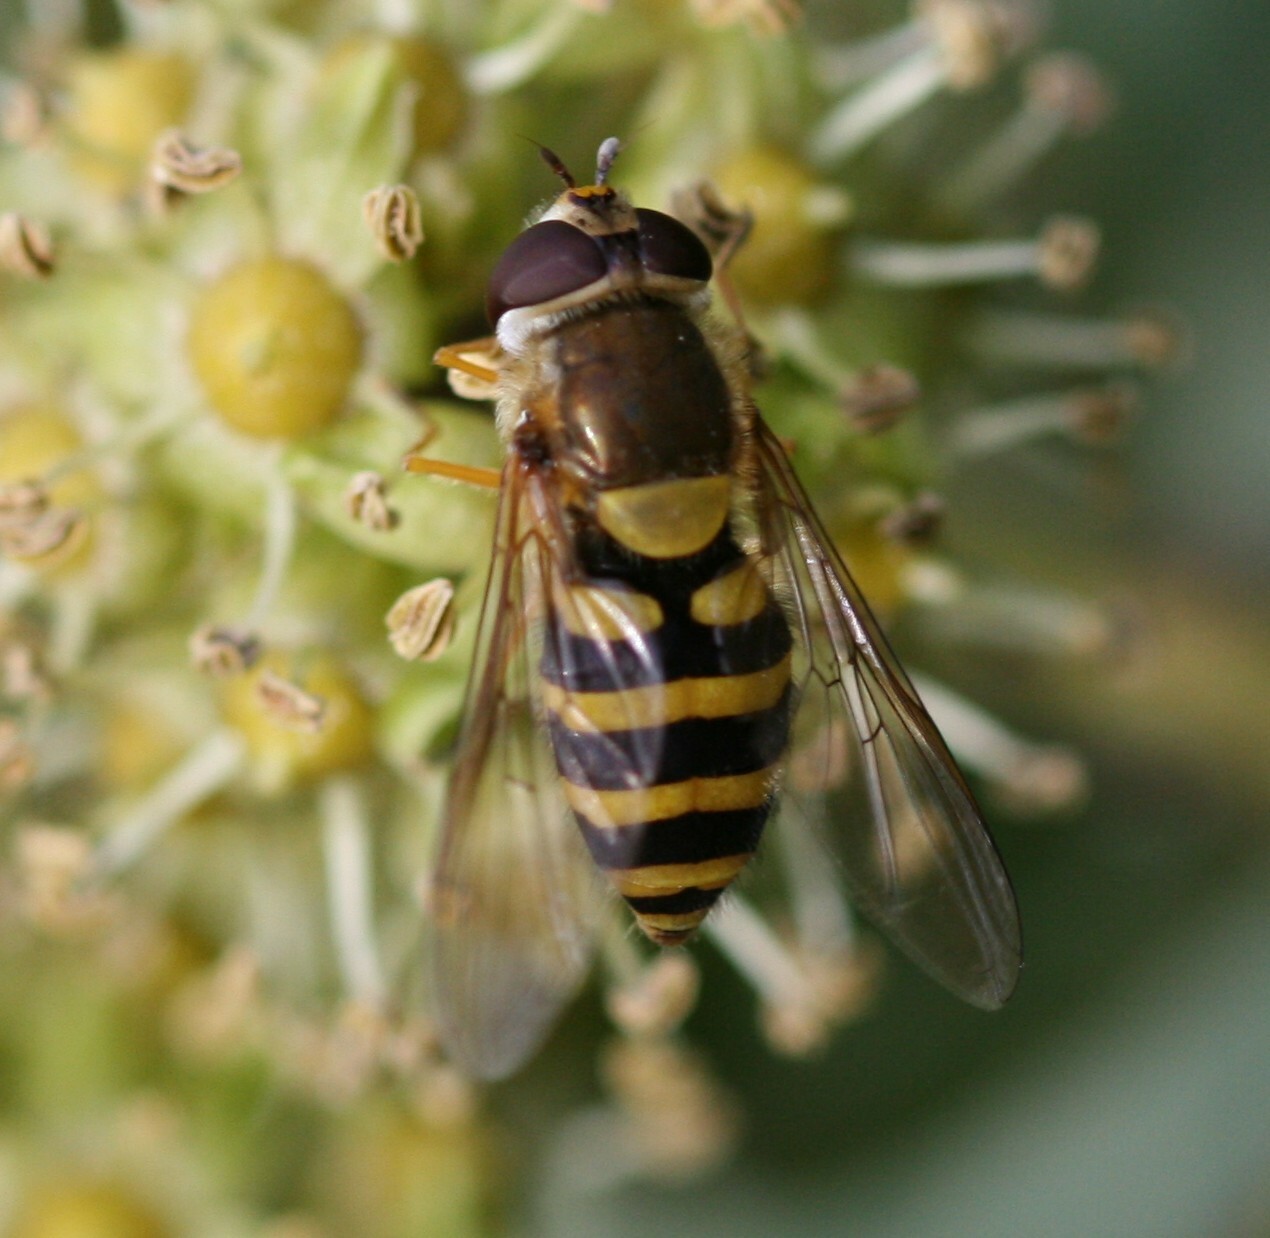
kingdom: Animalia
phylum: Arthropoda
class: Insecta
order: Diptera
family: Syrphidae
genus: Syrphus
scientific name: Syrphus
